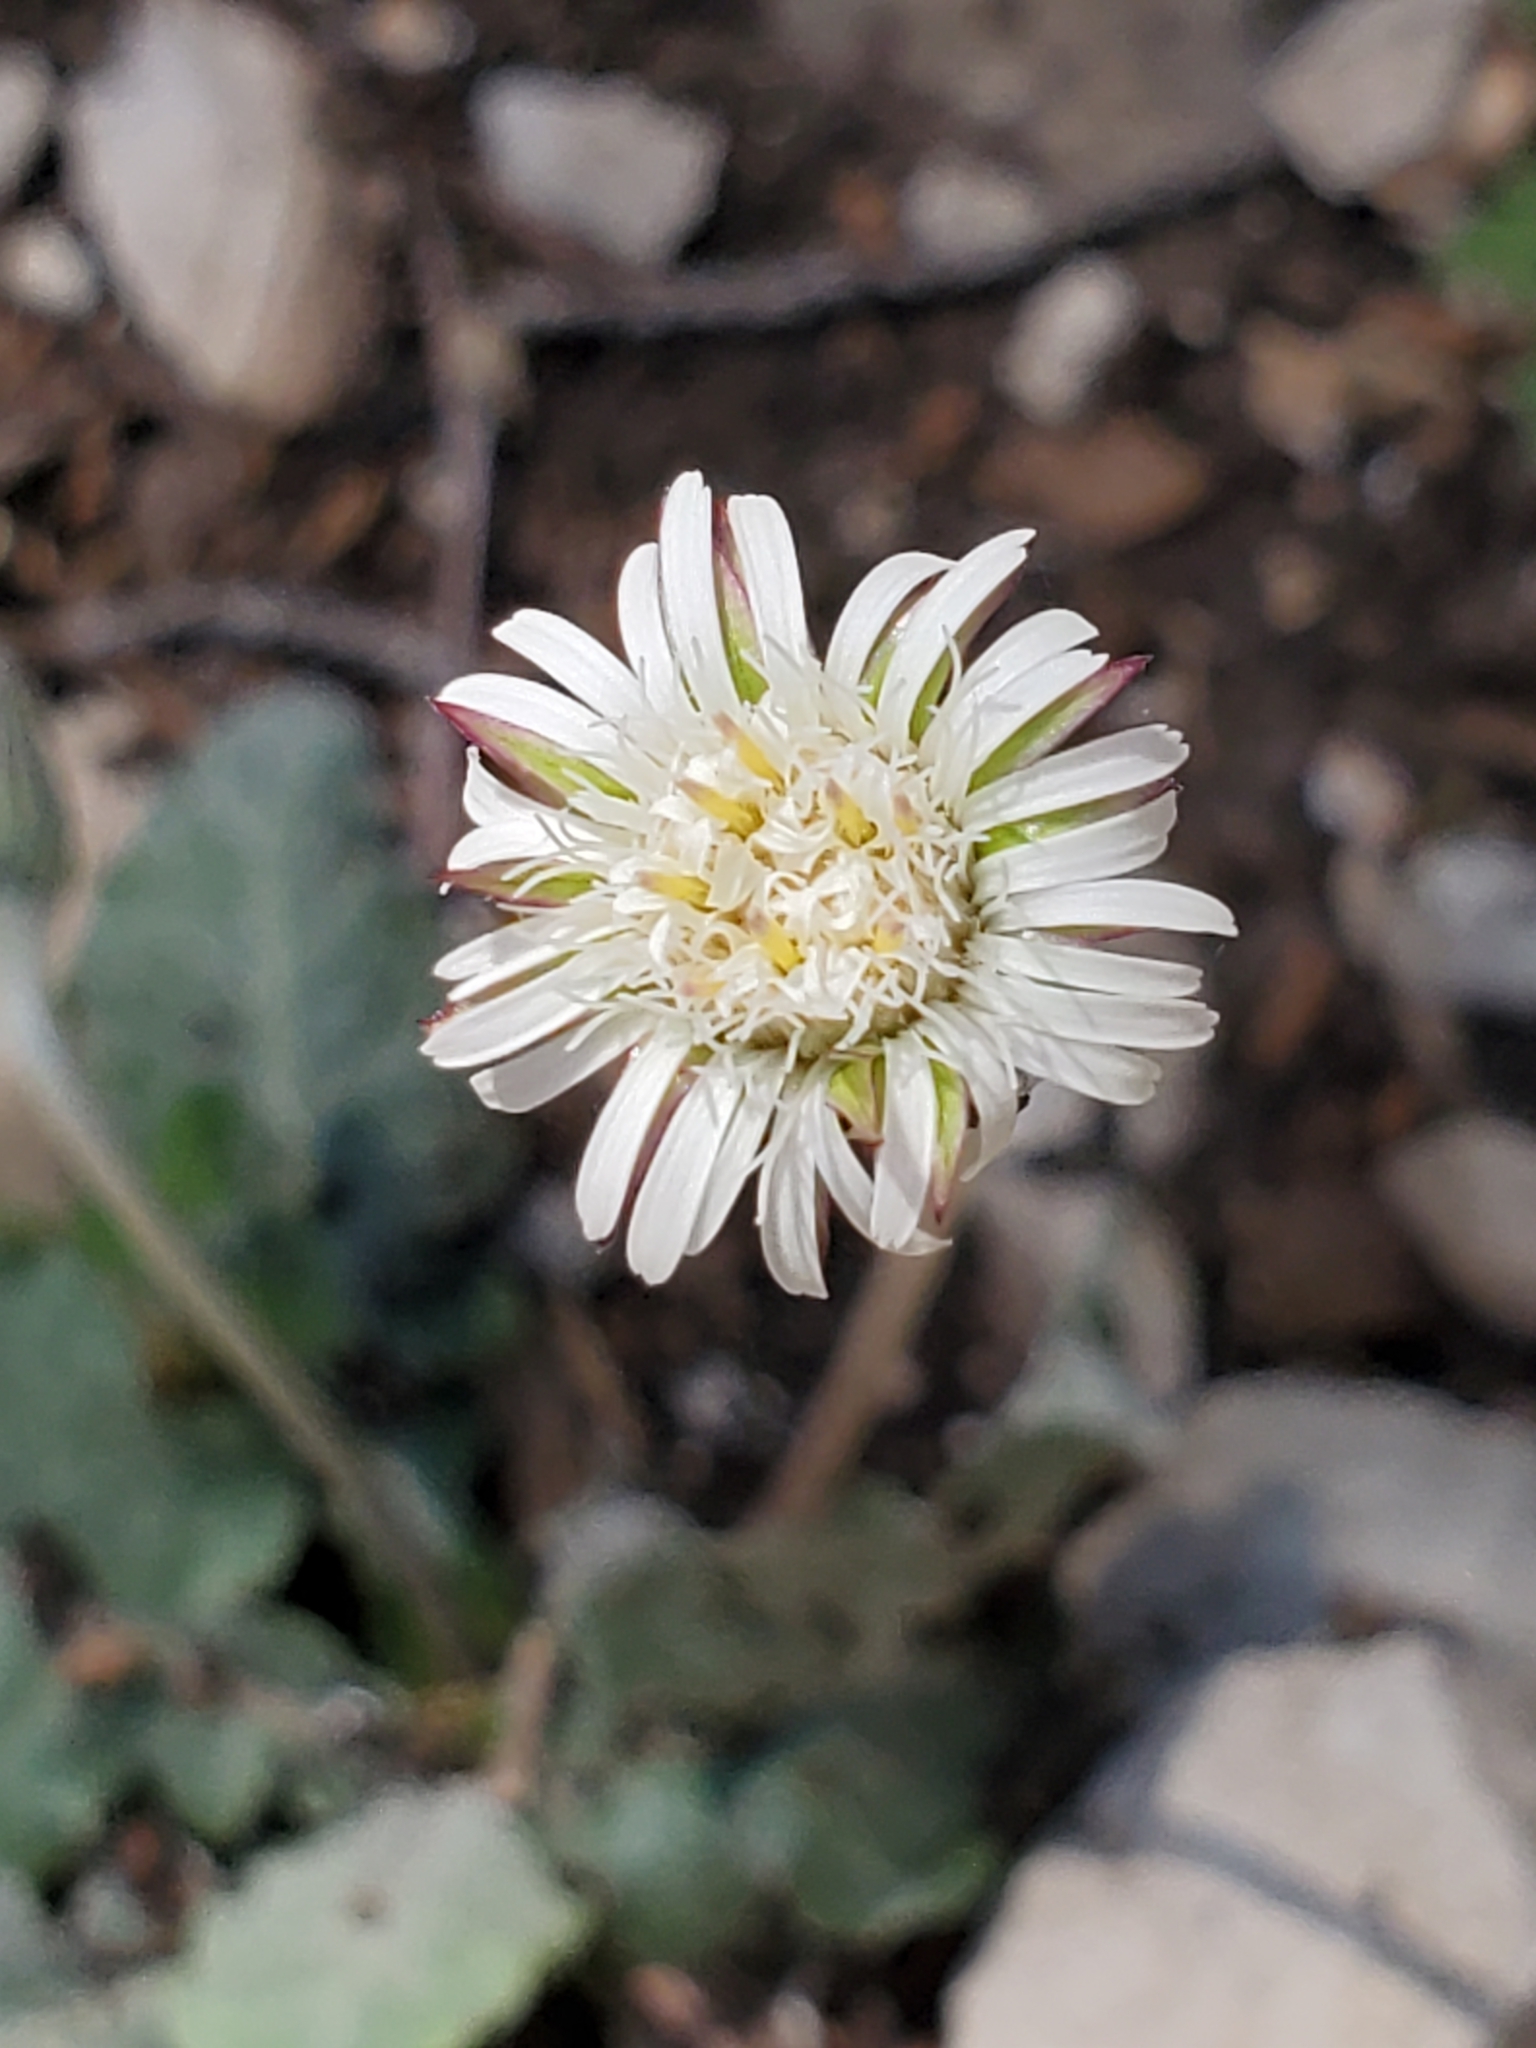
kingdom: Plantae
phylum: Tracheophyta
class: Magnoliopsida
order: Asterales
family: Asteraceae
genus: Chaptalia
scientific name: Chaptalia texana
